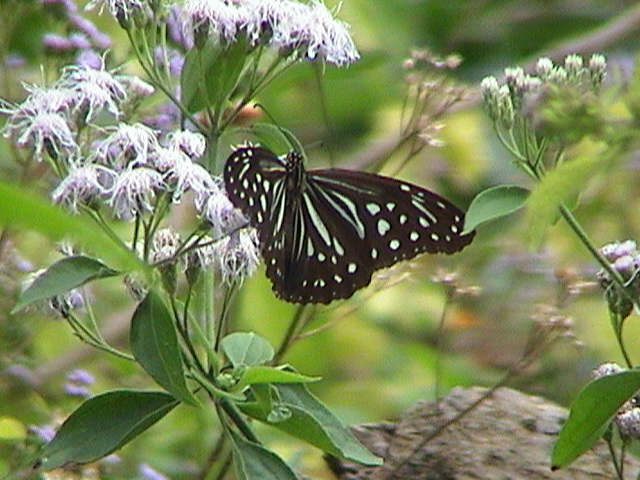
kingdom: Animalia
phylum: Arthropoda
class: Insecta
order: Lepidoptera
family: Nymphalidae
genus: Parantica
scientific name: Parantica nilgiriensis
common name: Nilgiri tiger
